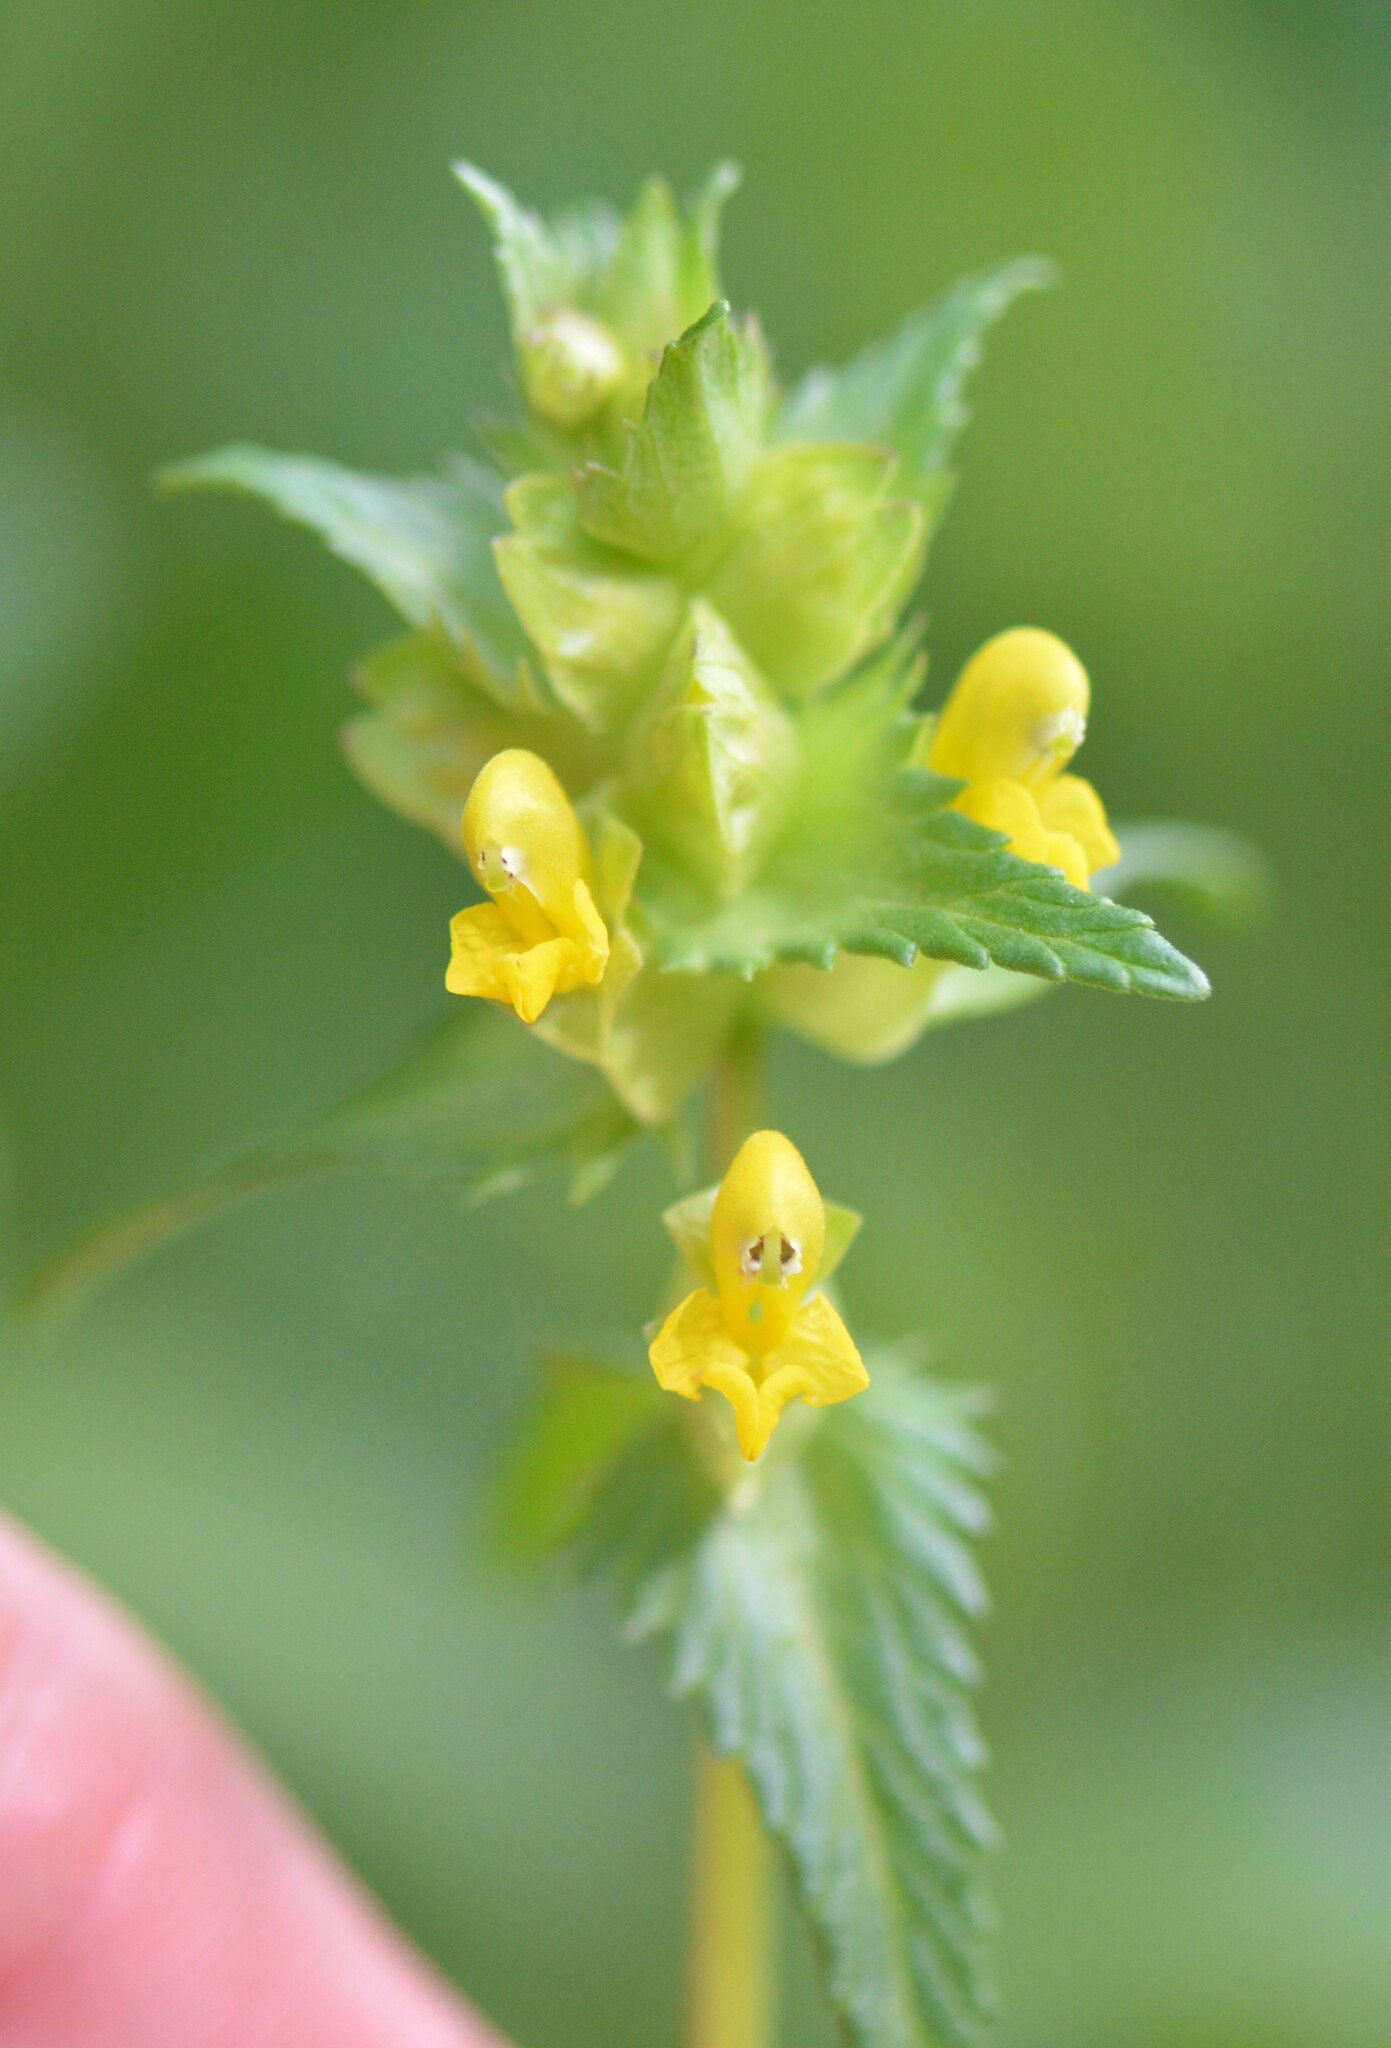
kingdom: Plantae
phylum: Tracheophyta
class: Magnoliopsida
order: Lamiales
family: Orobanchaceae
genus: Rhinanthus
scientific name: Rhinanthus minor
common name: Yellow-rattle
